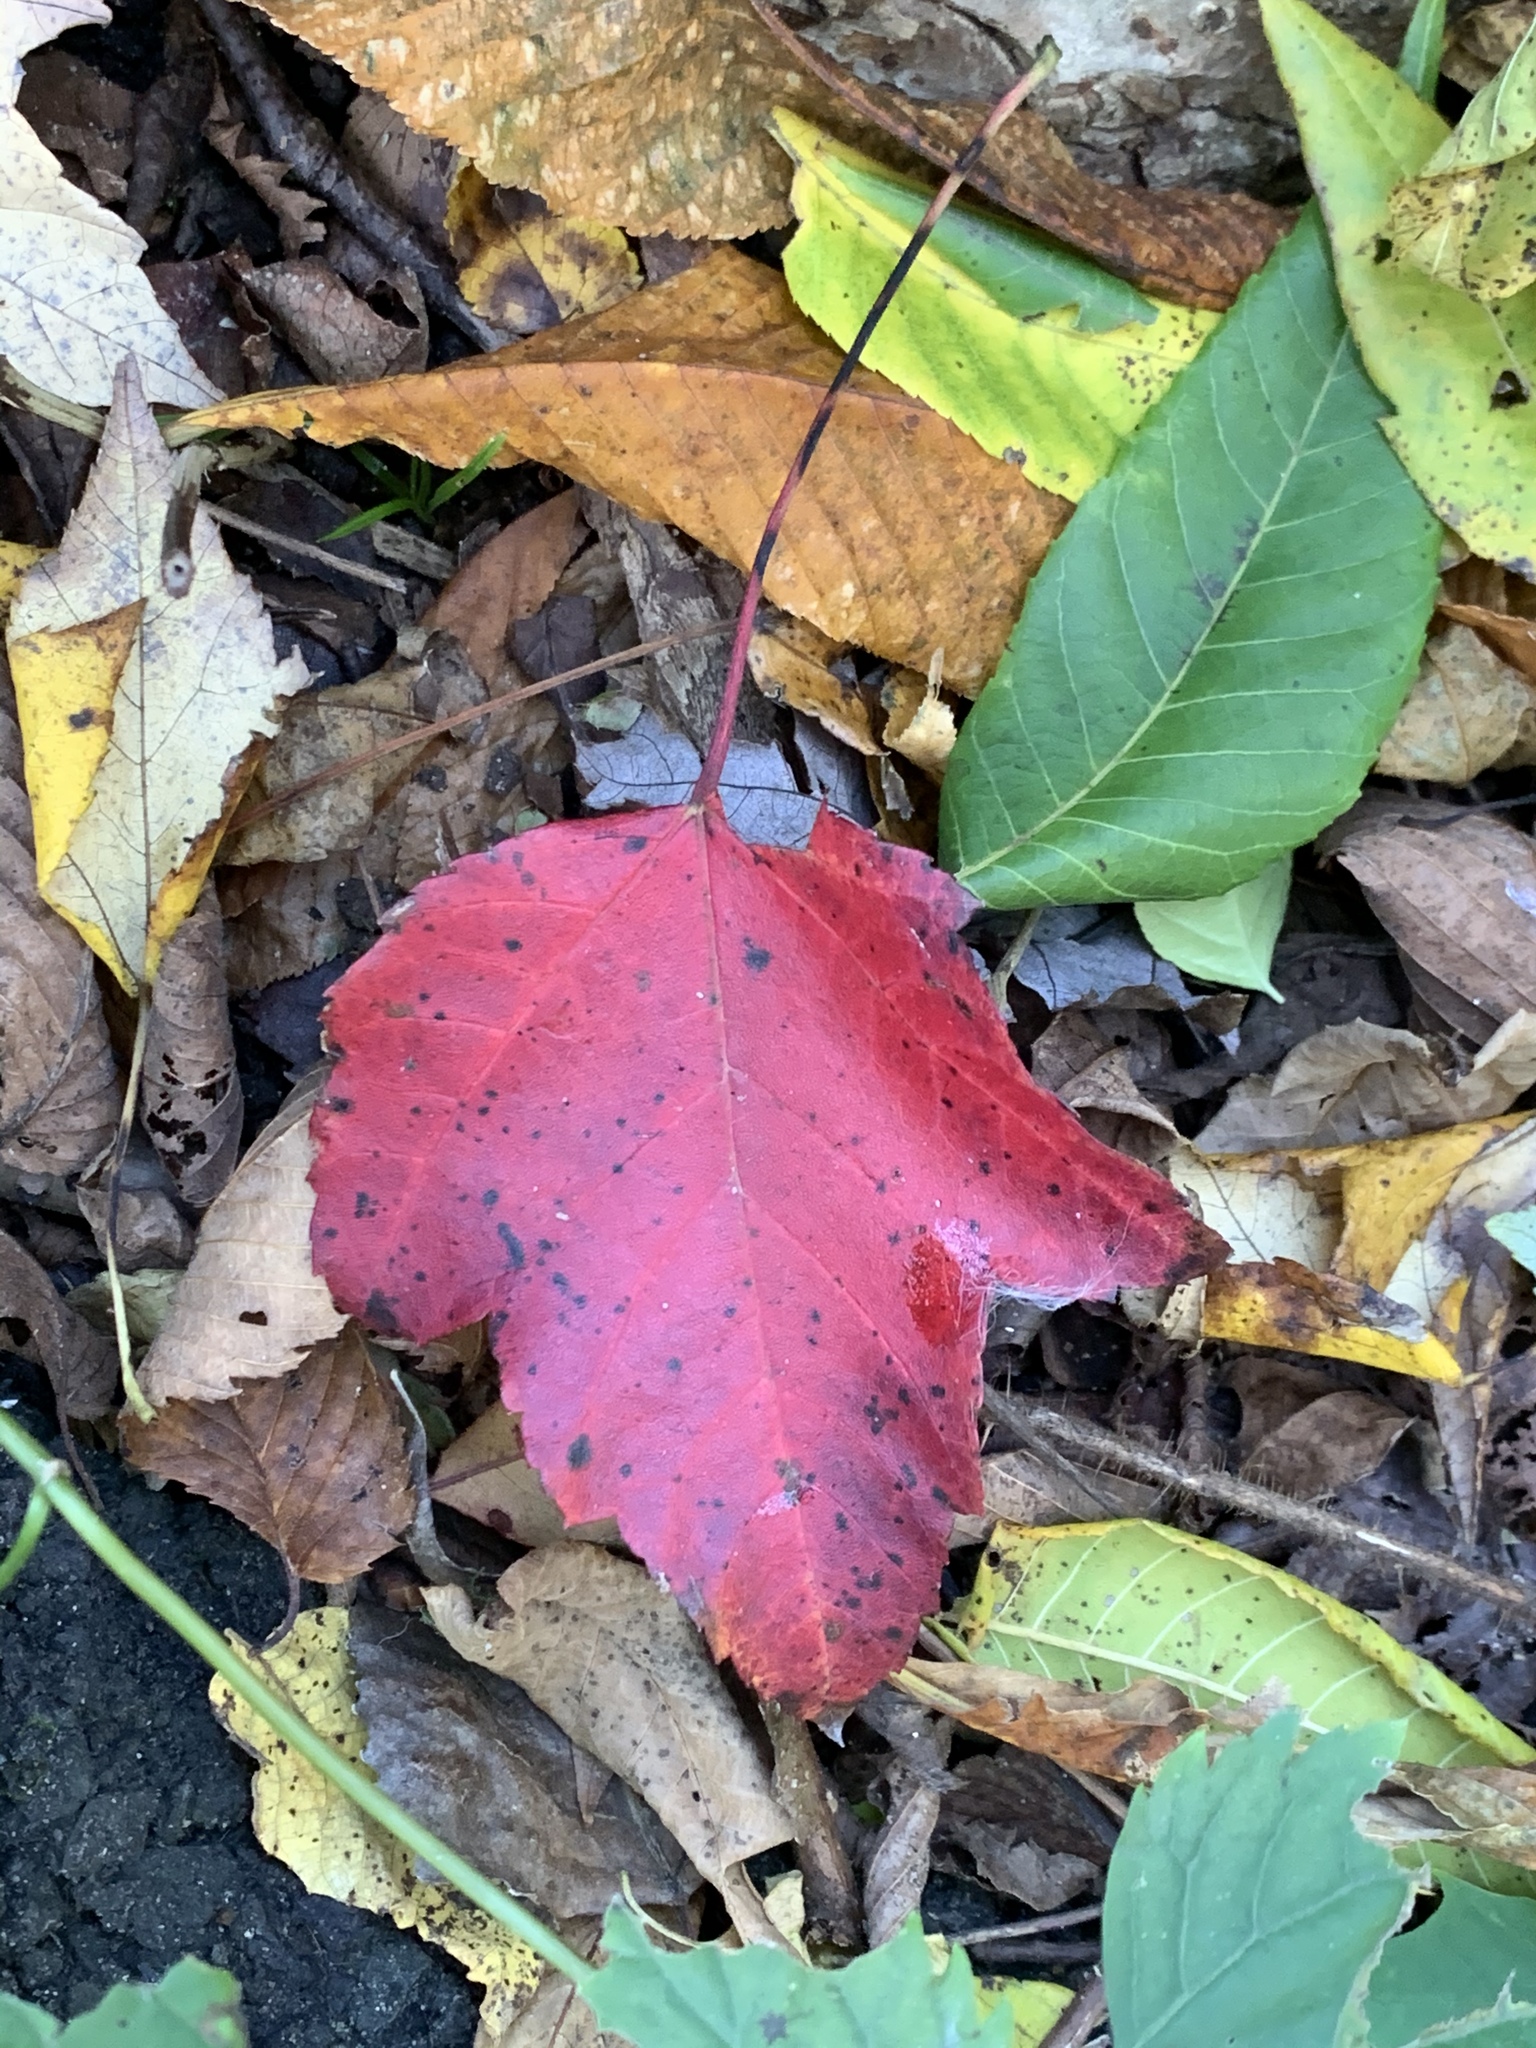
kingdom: Plantae
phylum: Tracheophyta
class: Magnoliopsida
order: Sapindales
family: Sapindaceae
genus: Acer
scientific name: Acer rubrum
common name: Red maple
